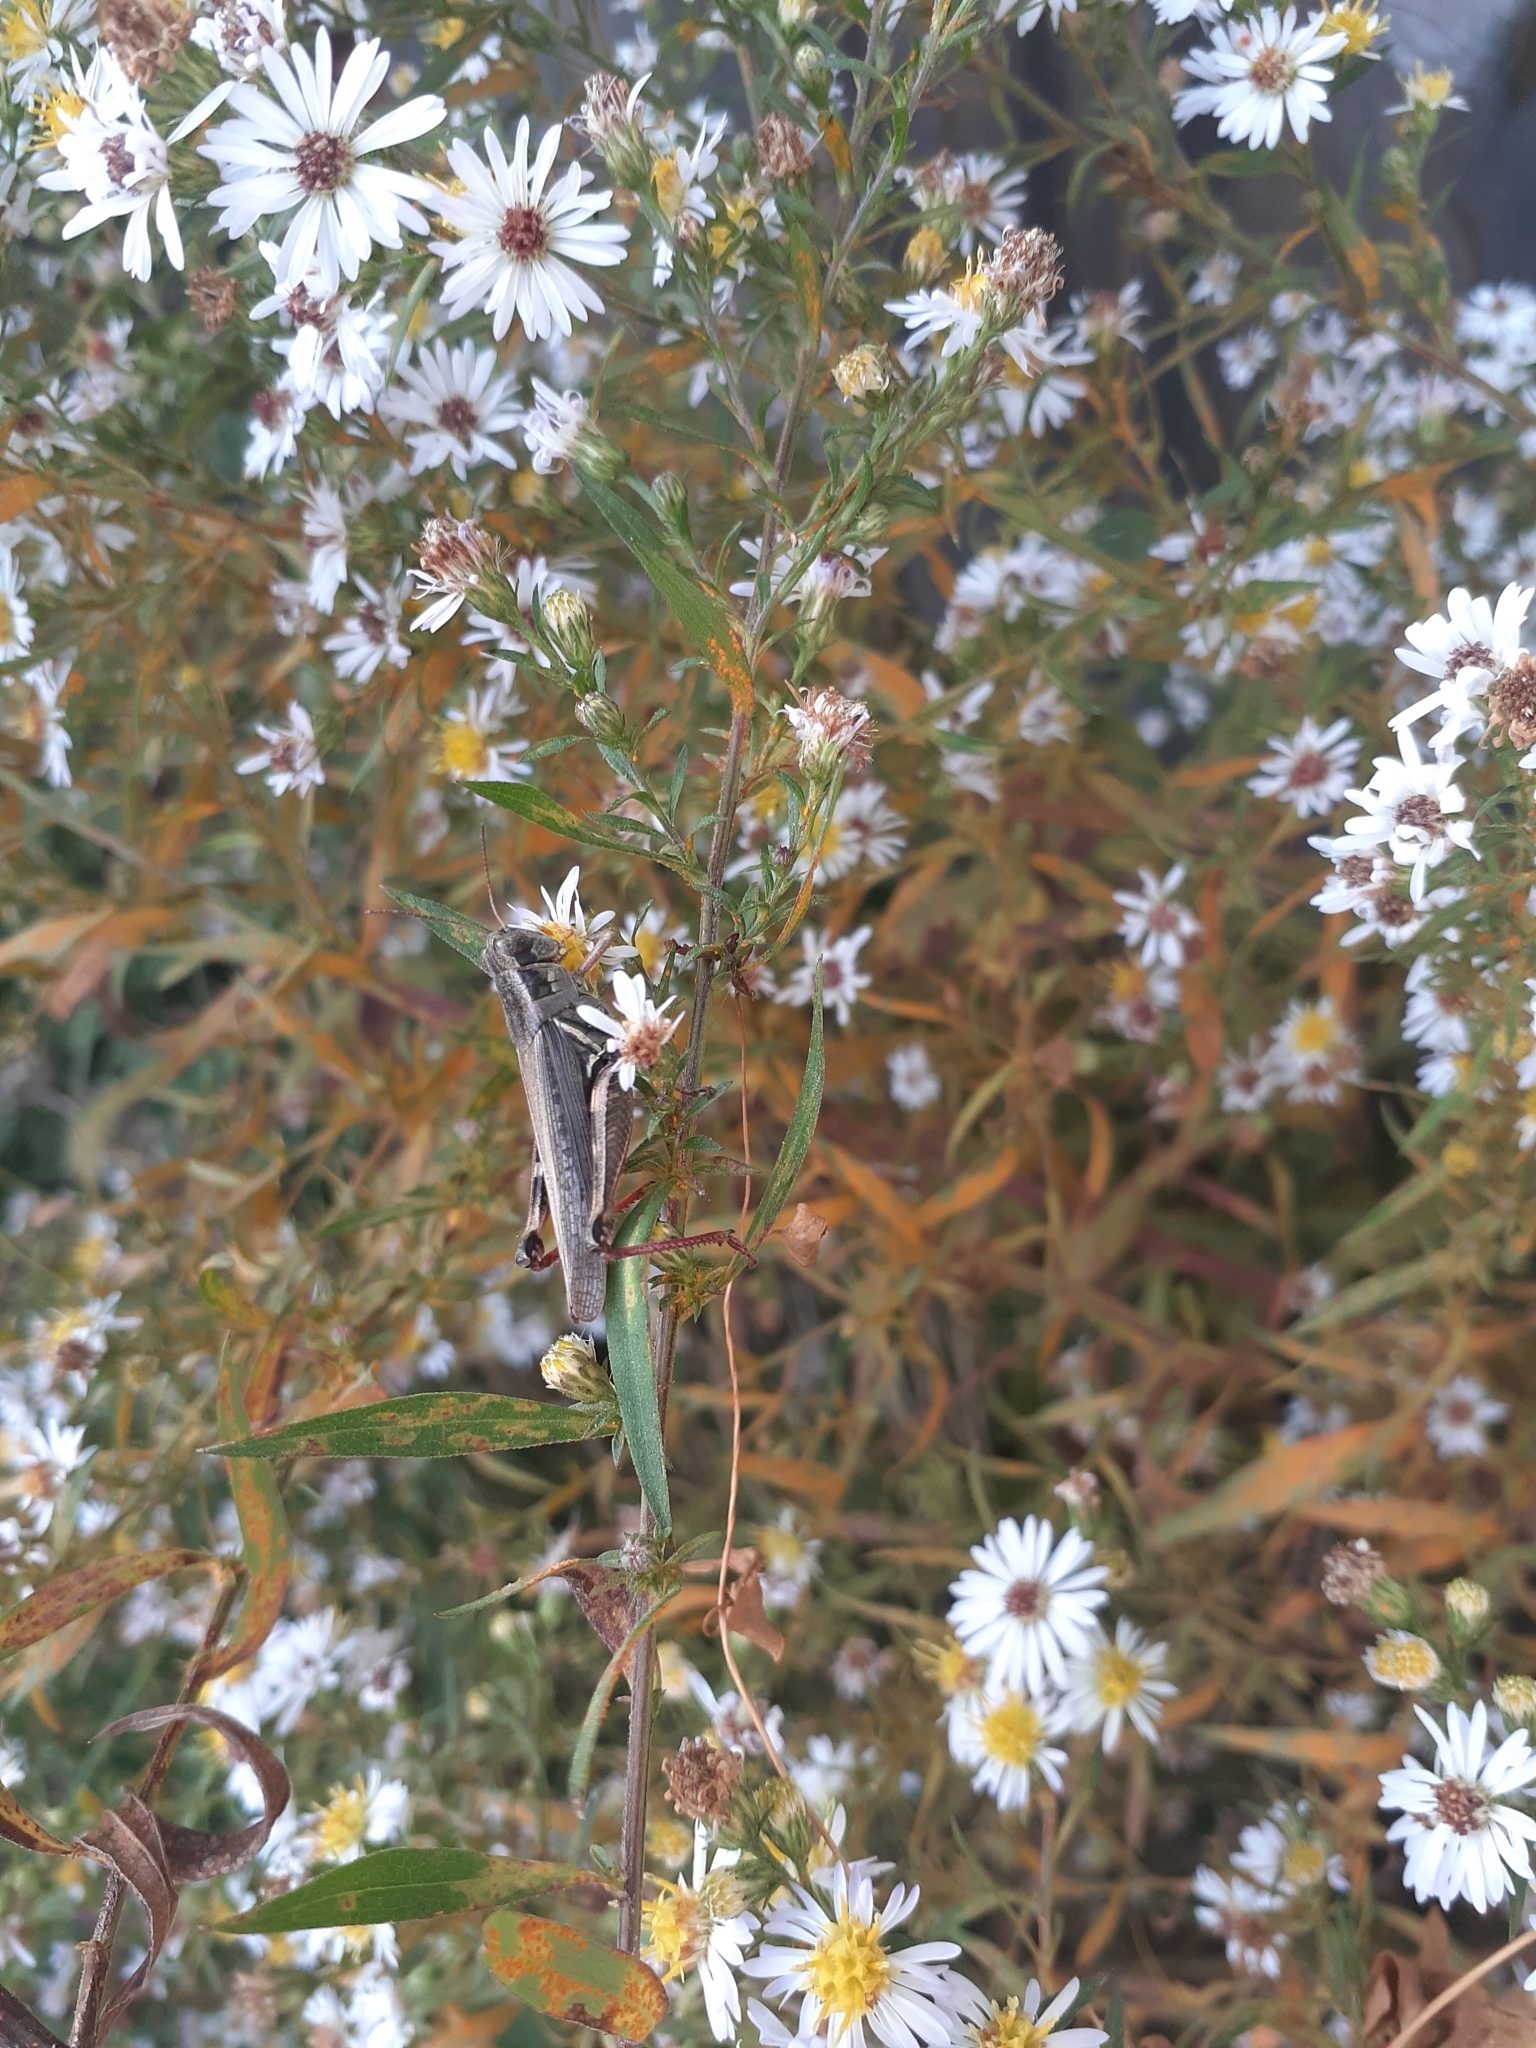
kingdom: Animalia
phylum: Arthropoda
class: Insecta
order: Orthoptera
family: Acrididae
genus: Melanoplus
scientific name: Melanoplus femurrubrum
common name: Red-legged grasshopper
